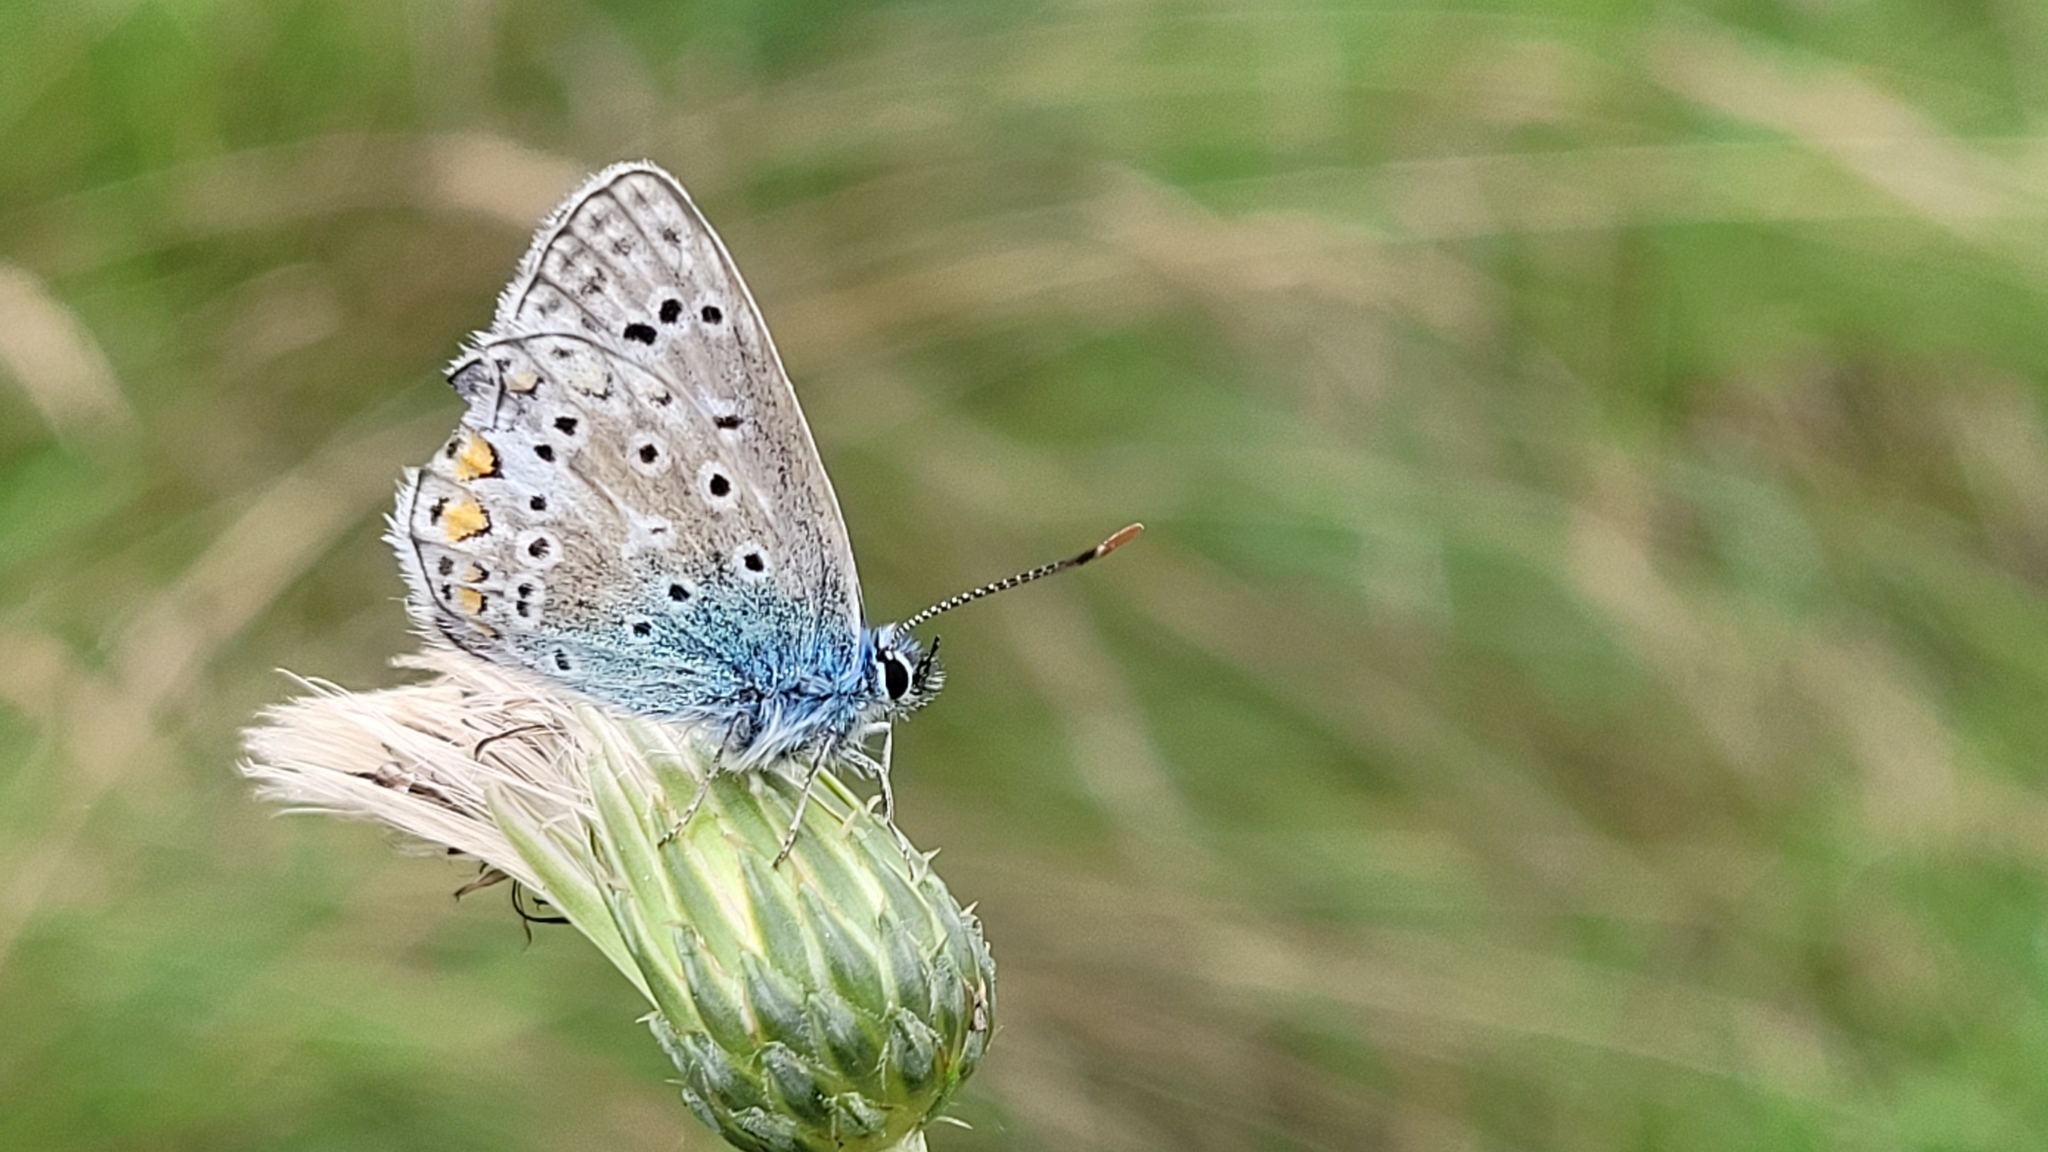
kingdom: Animalia
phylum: Arthropoda
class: Insecta
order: Lepidoptera
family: Lycaenidae
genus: Polyommatus
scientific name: Polyommatus icarus
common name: Common blue
